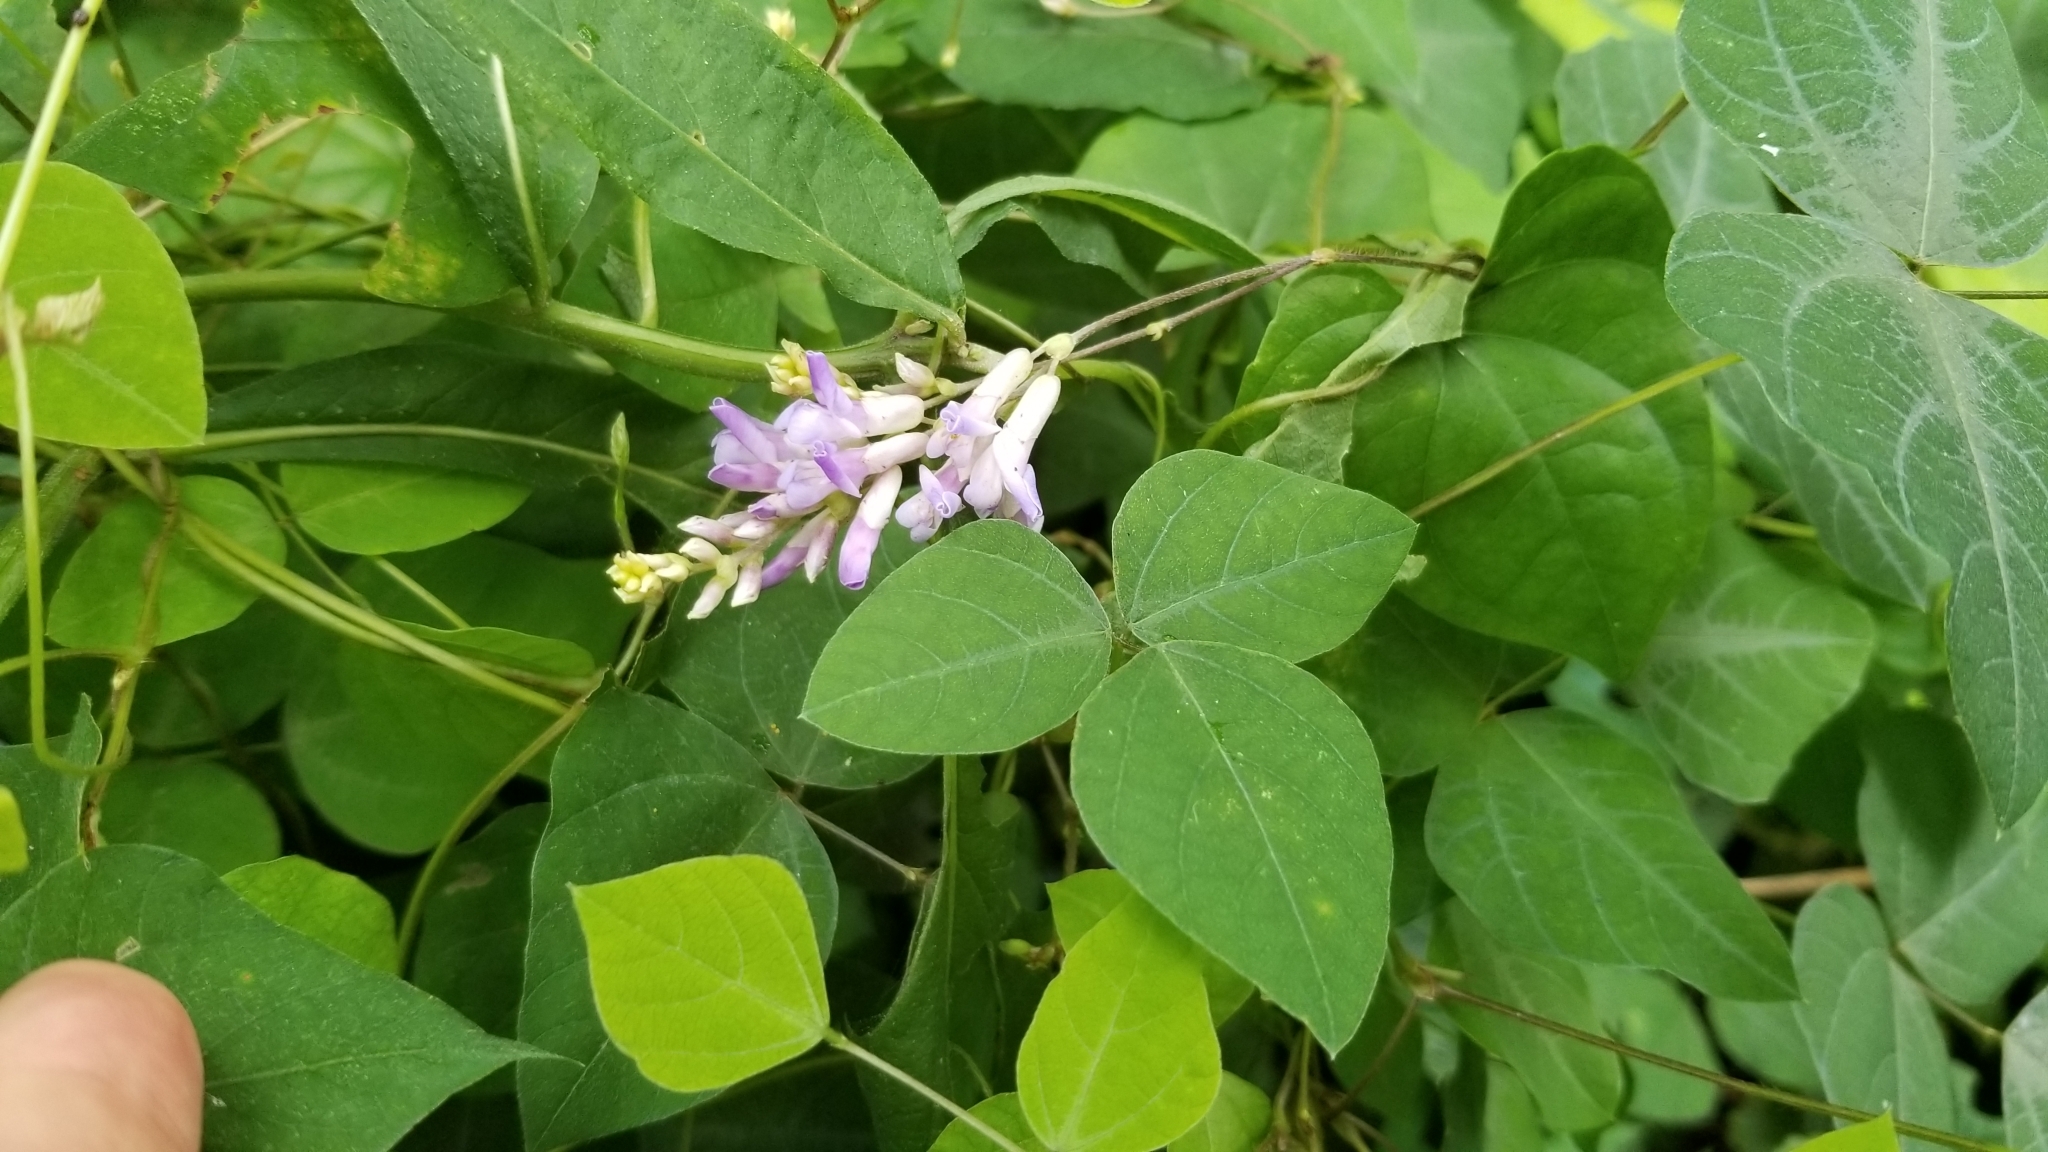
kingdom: Plantae
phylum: Tracheophyta
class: Magnoliopsida
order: Fabales
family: Fabaceae
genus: Amphicarpaea
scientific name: Amphicarpaea bracteata
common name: American hog peanut
